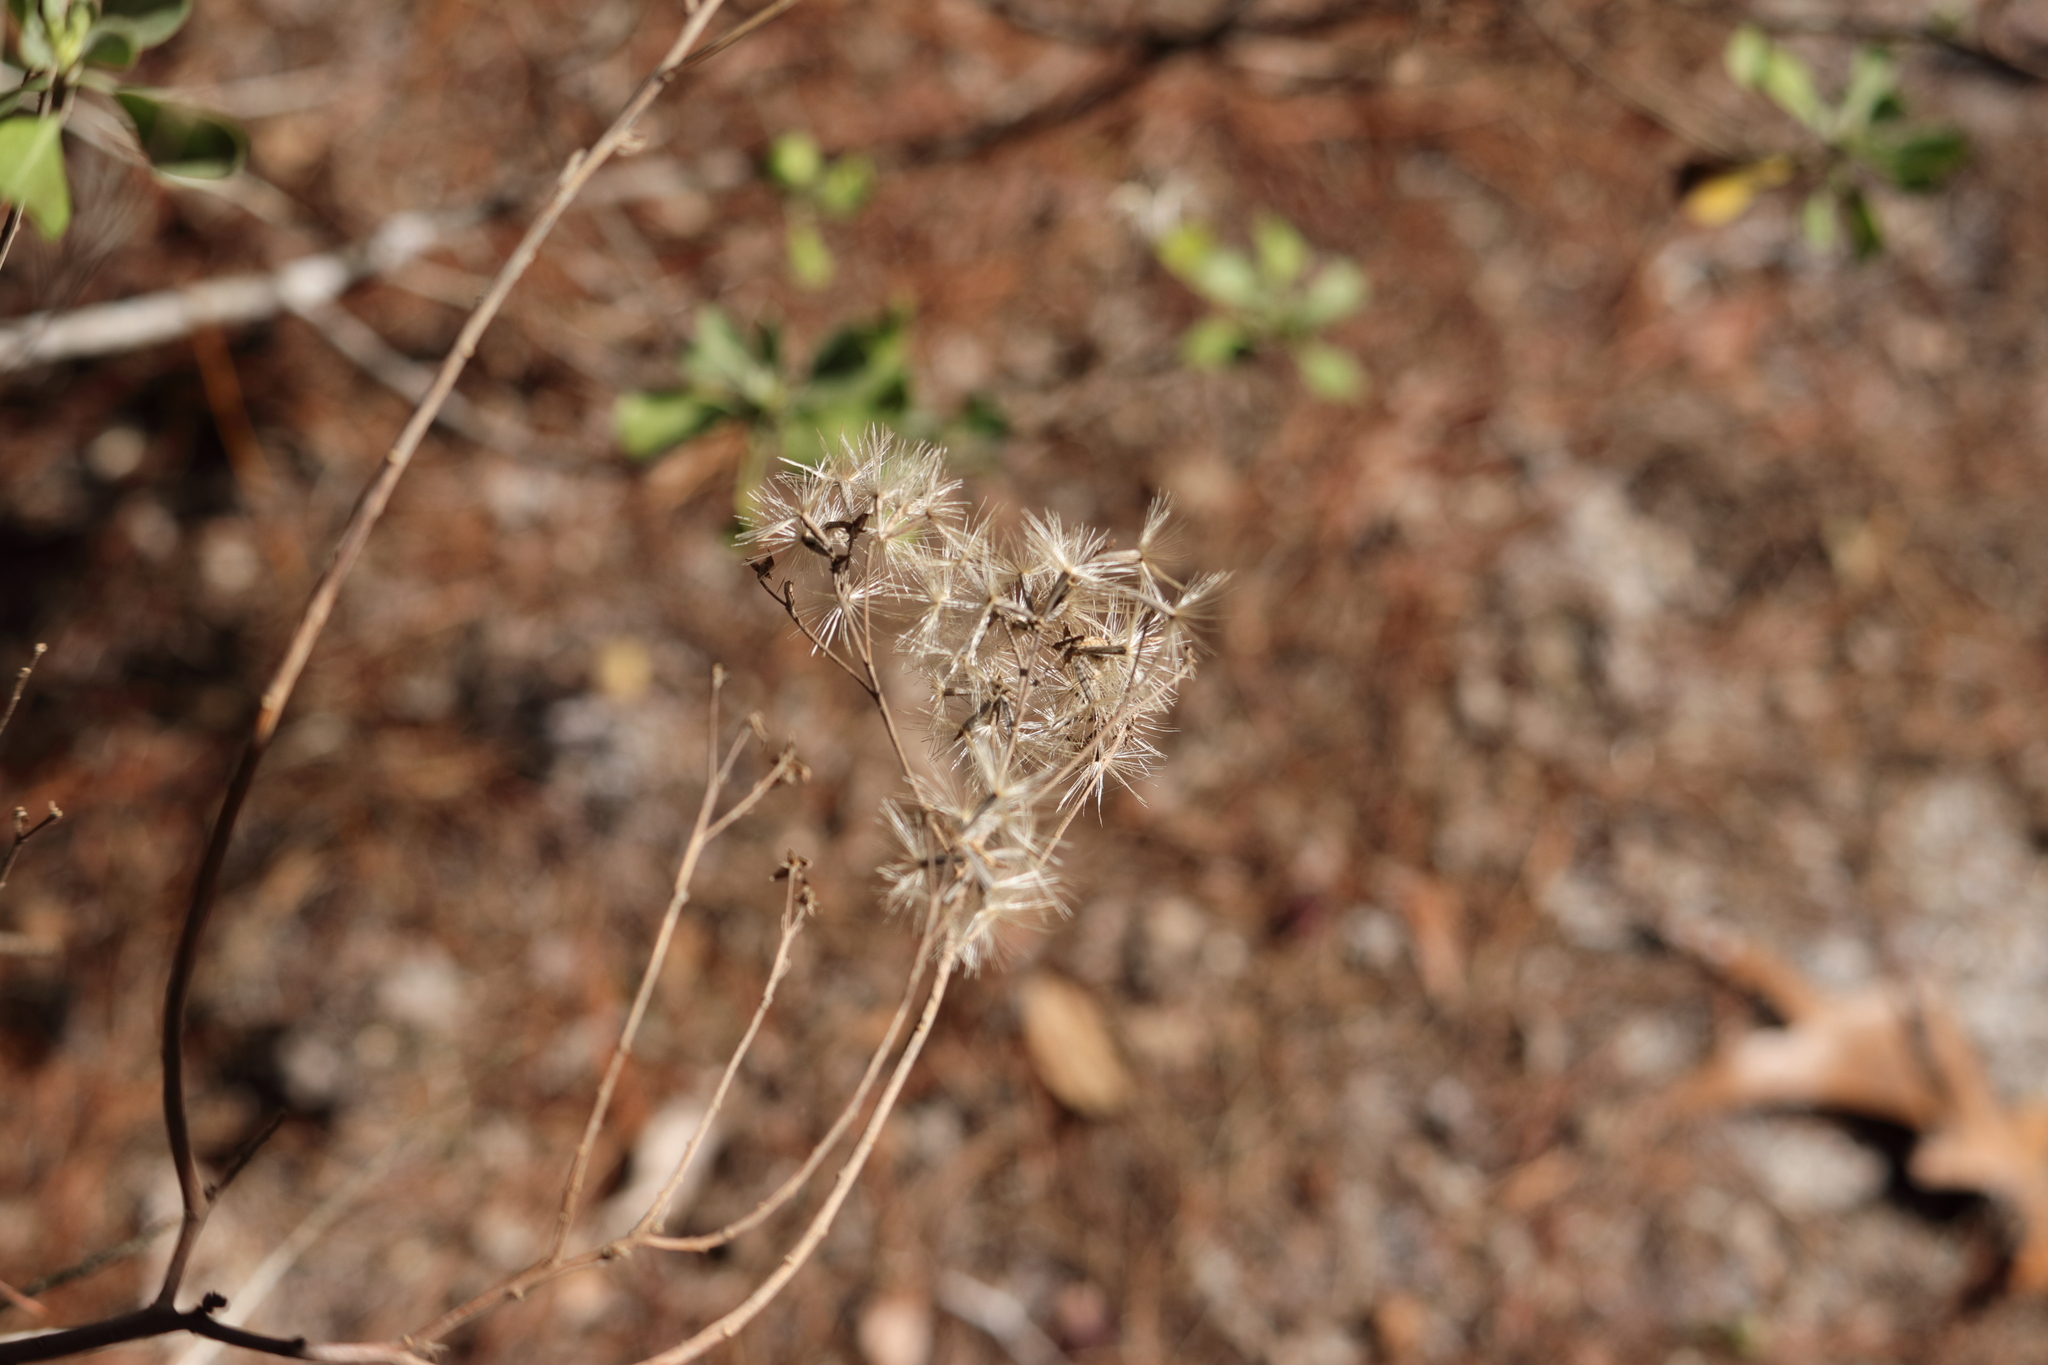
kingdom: Plantae
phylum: Tracheophyta
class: Magnoliopsida
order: Asterales
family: Asteraceae
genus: Garberia
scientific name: Garberia heterophylla
